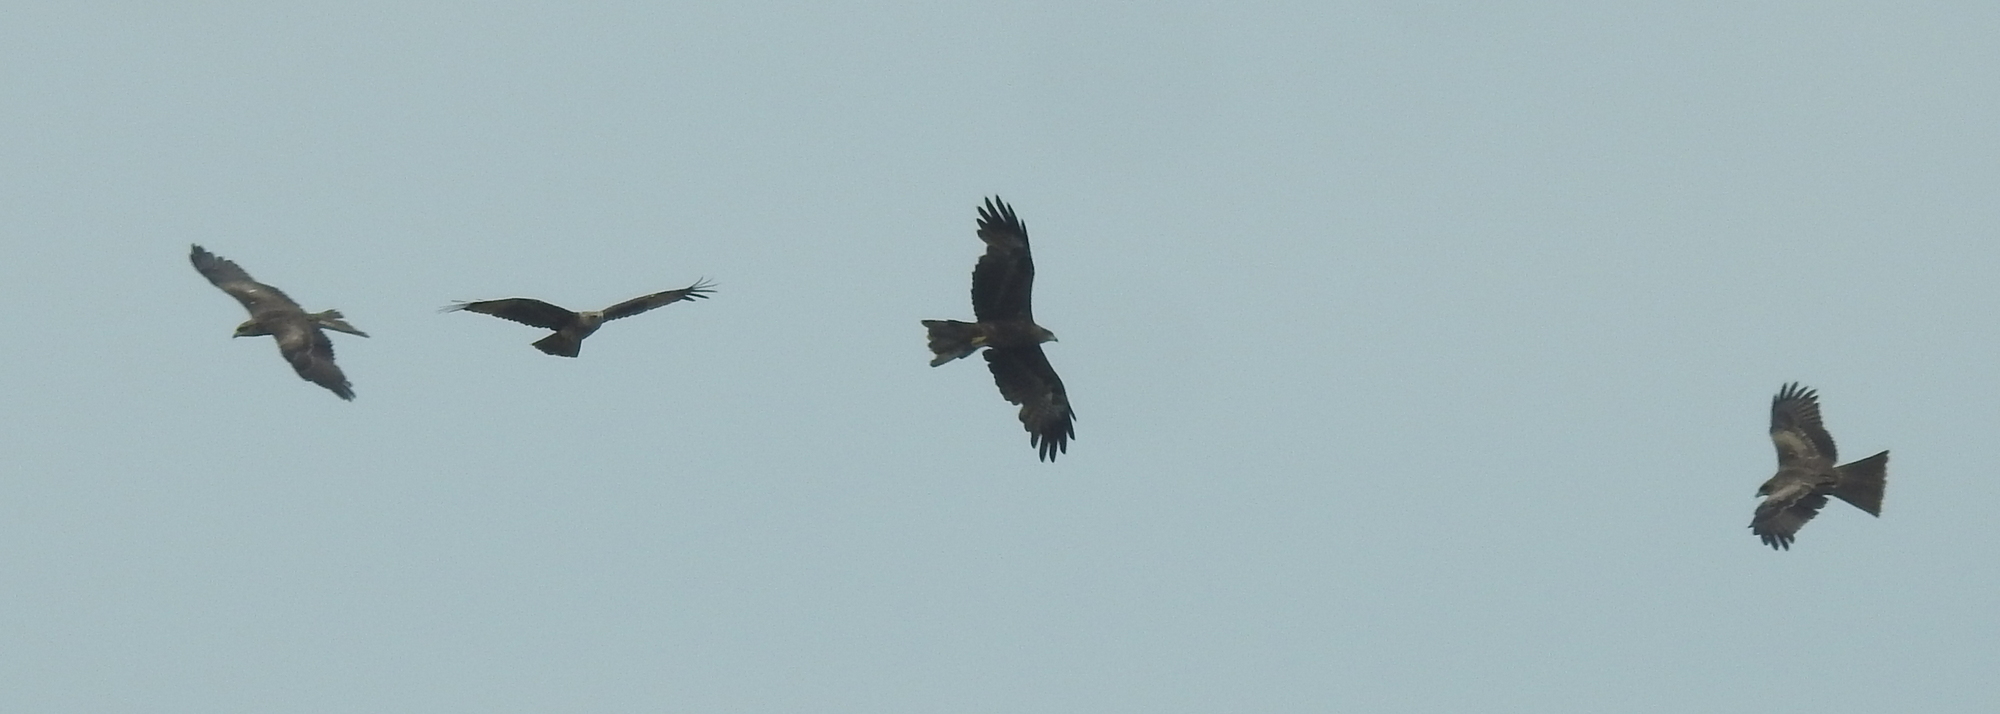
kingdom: Animalia
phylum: Chordata
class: Aves
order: Accipitriformes
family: Accipitridae
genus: Milvus
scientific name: Milvus migrans
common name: Black kite
